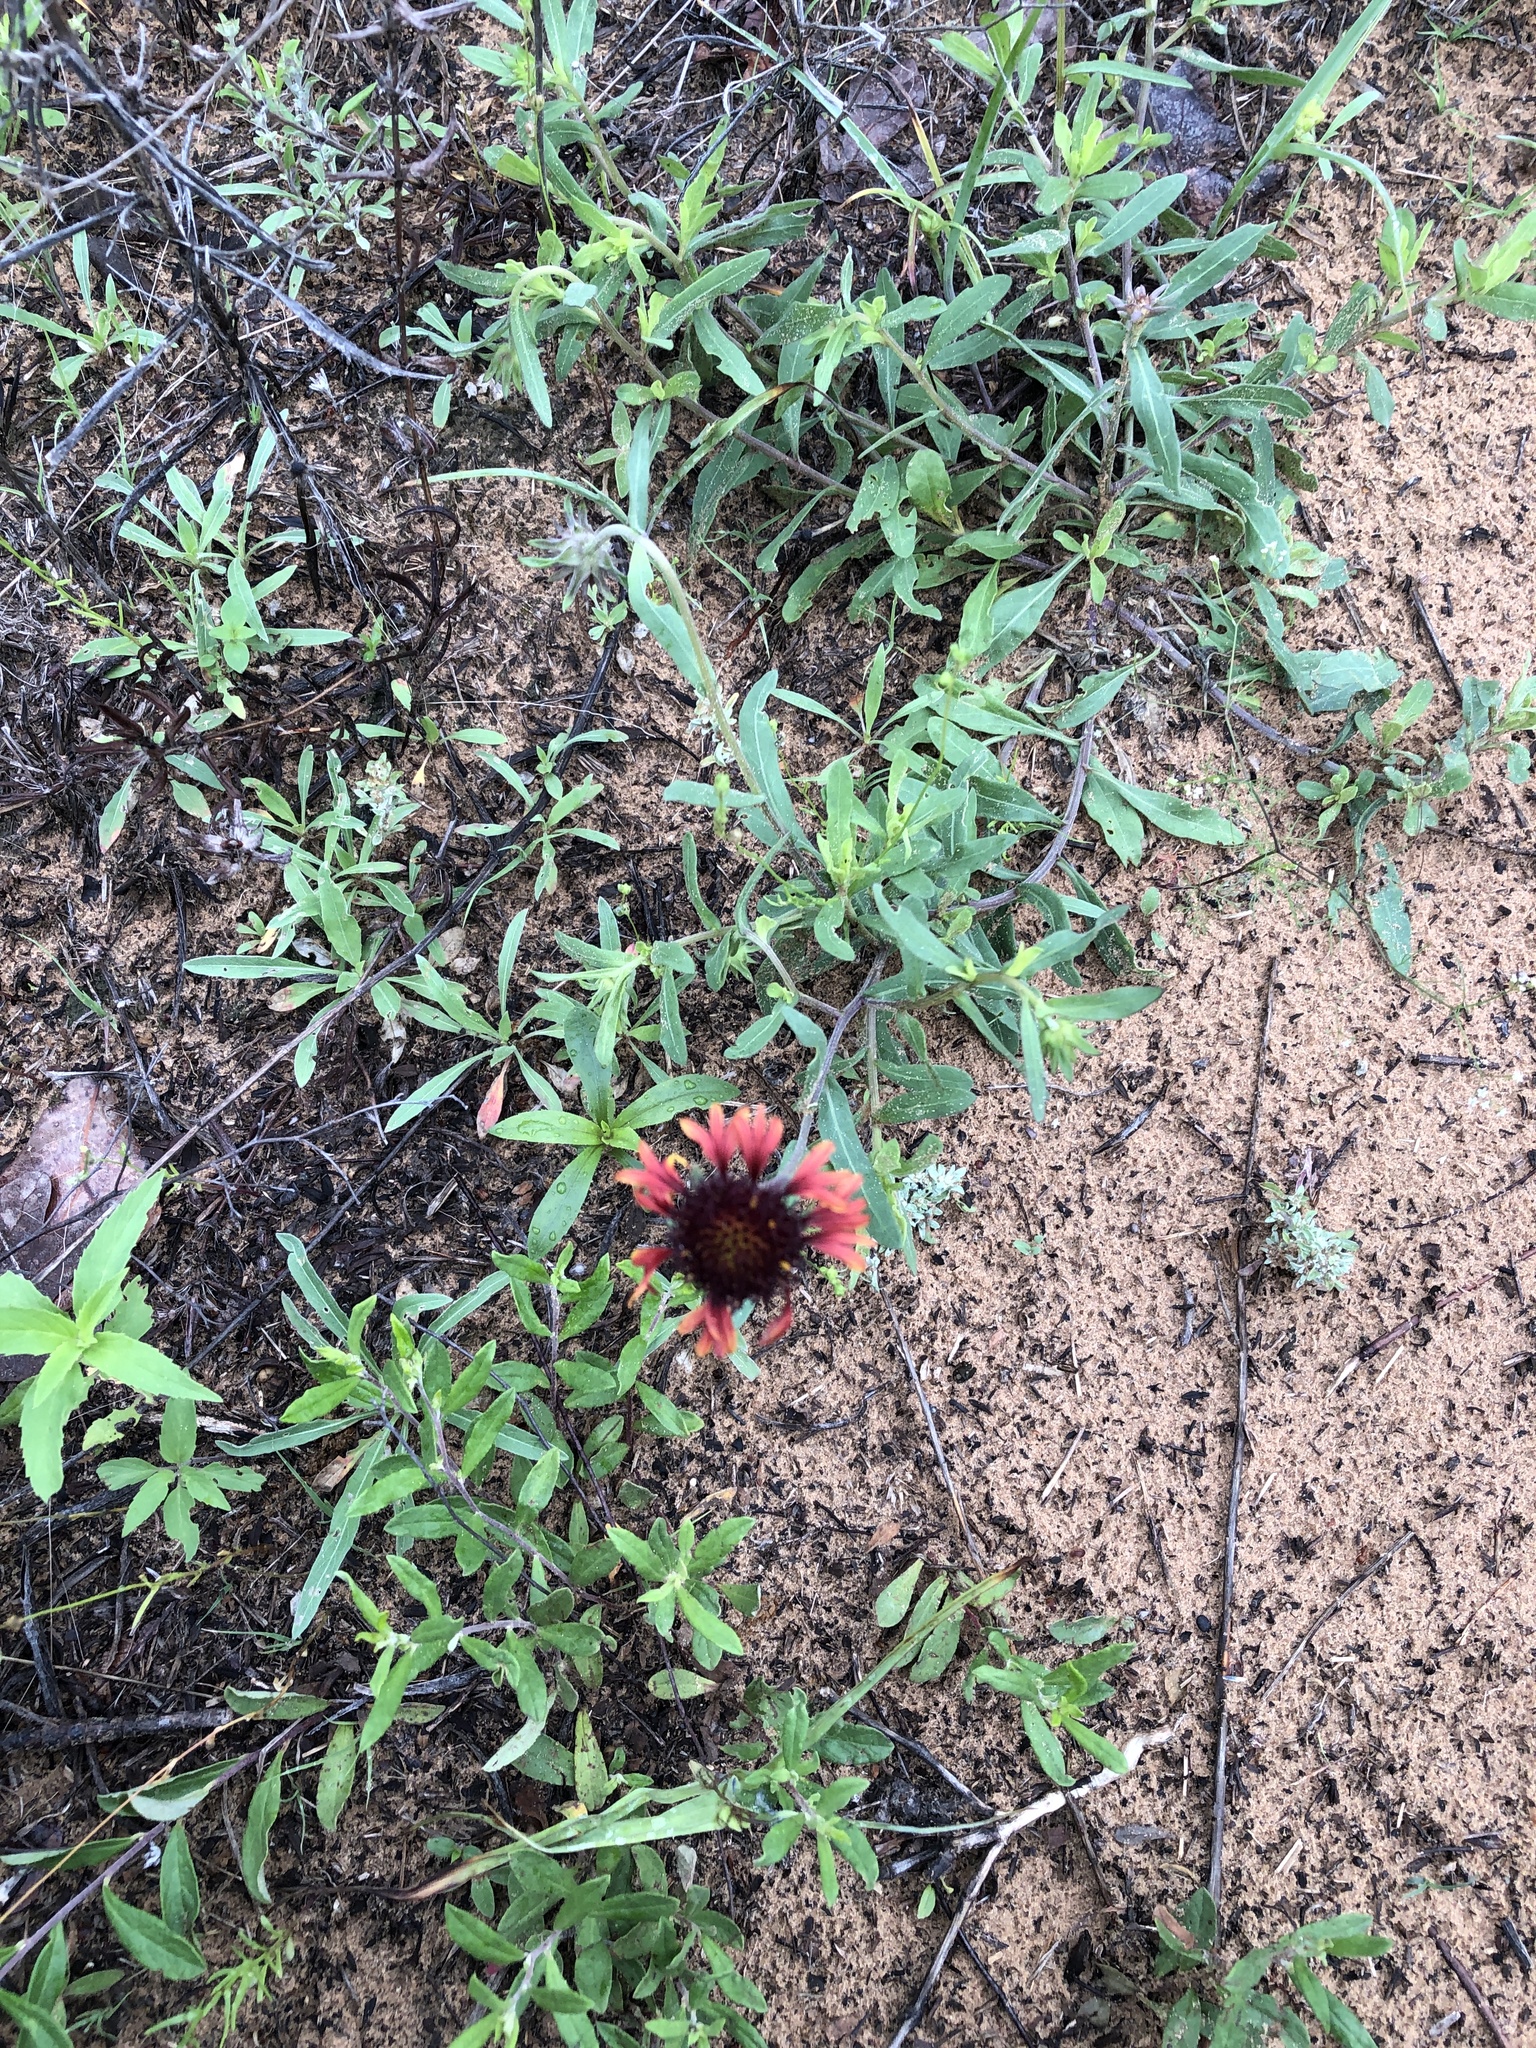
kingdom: Plantae
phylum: Tracheophyta
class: Magnoliopsida
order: Asterales
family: Asteraceae
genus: Gaillardia
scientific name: Gaillardia aestivalis
